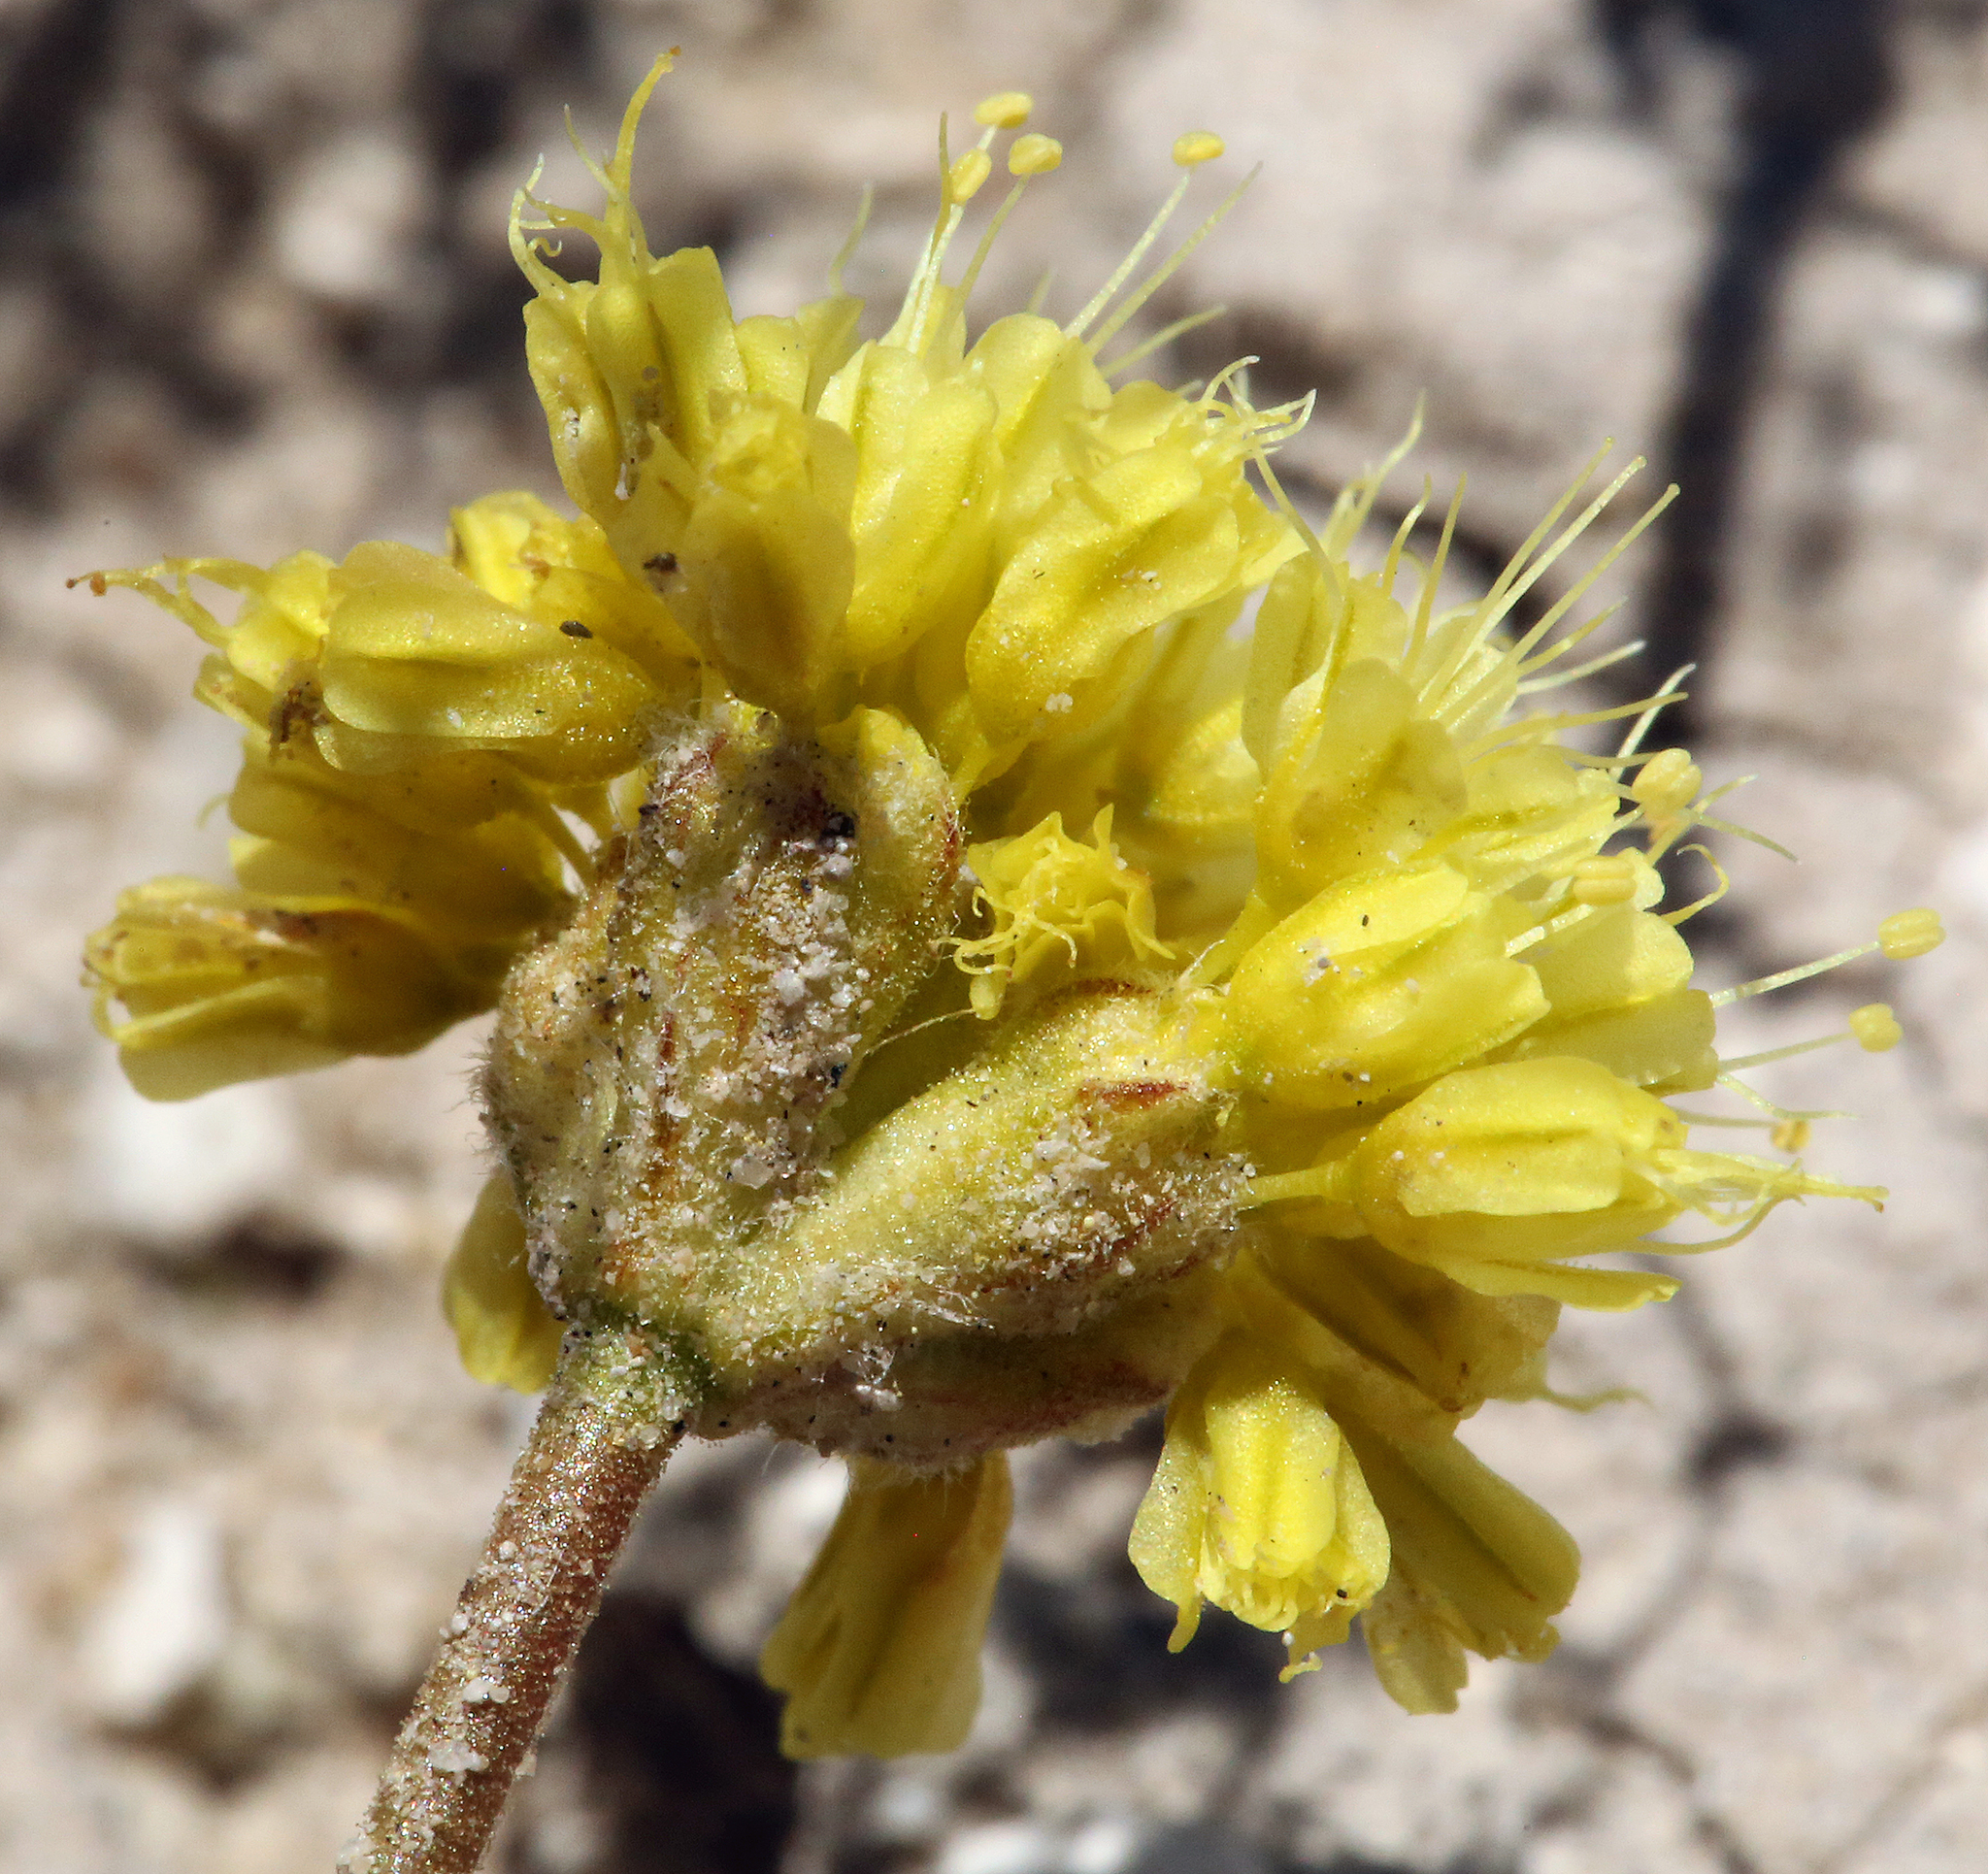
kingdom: Plantae
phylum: Tracheophyta
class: Magnoliopsida
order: Caryophyllales
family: Polygonaceae
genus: Eriogonum
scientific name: Eriogonum rosense
